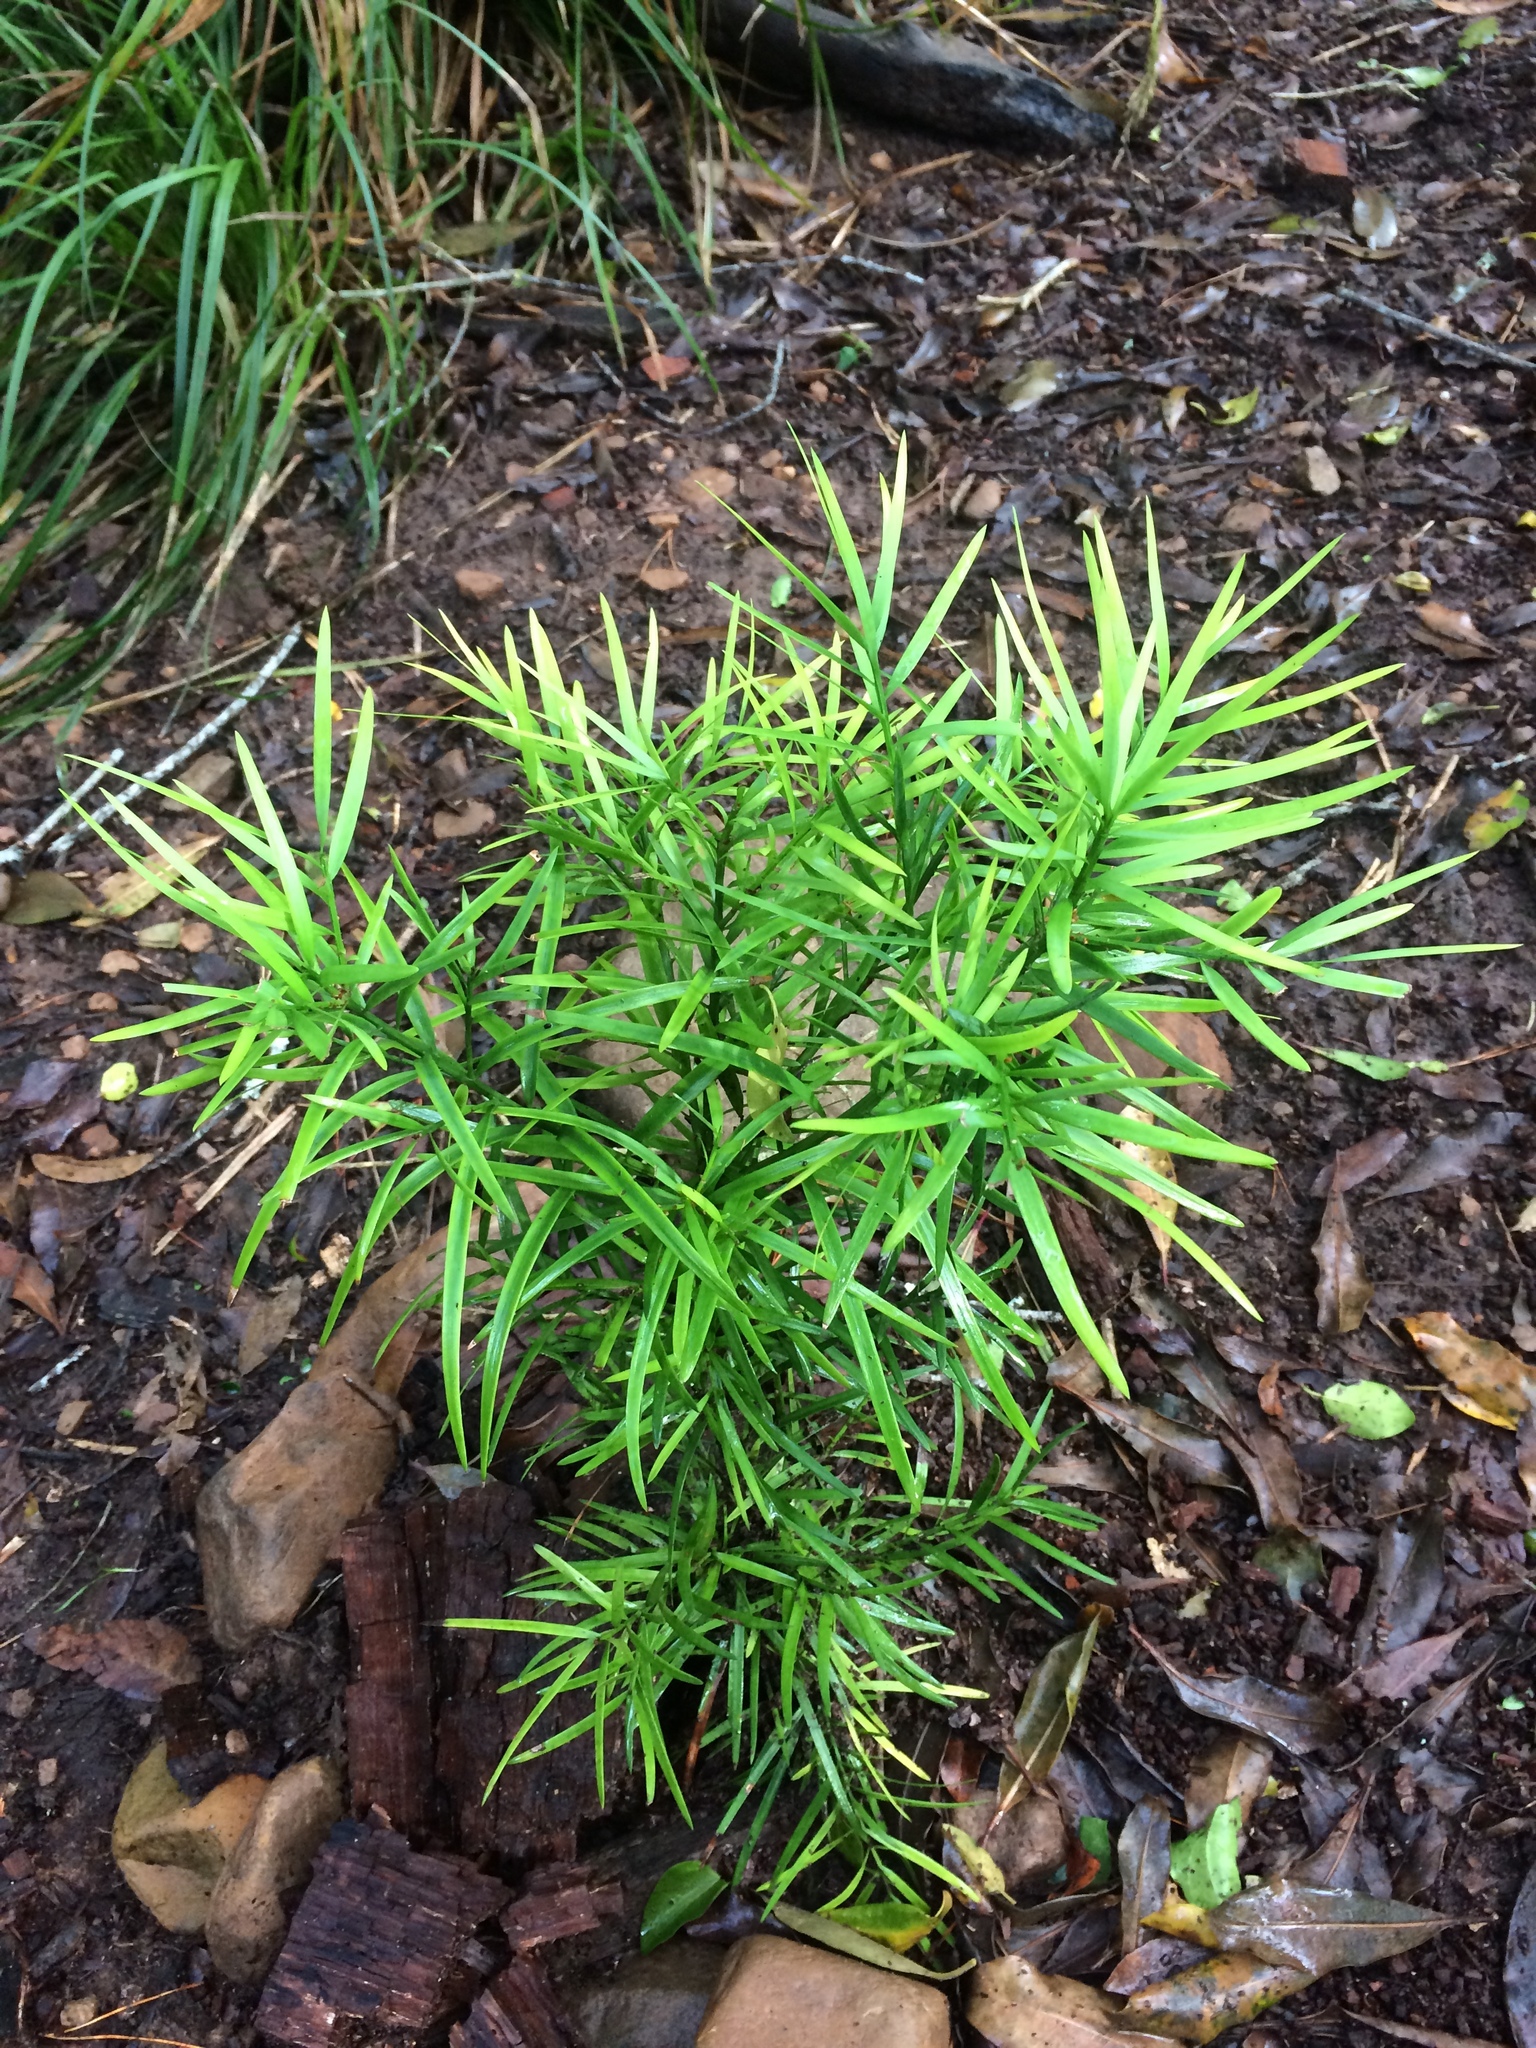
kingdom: Plantae
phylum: Tracheophyta
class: Pinopsida
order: Pinales
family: Podocarpaceae
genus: Afrocarpus
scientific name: Afrocarpus falcatus
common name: Bastard yellowwood
